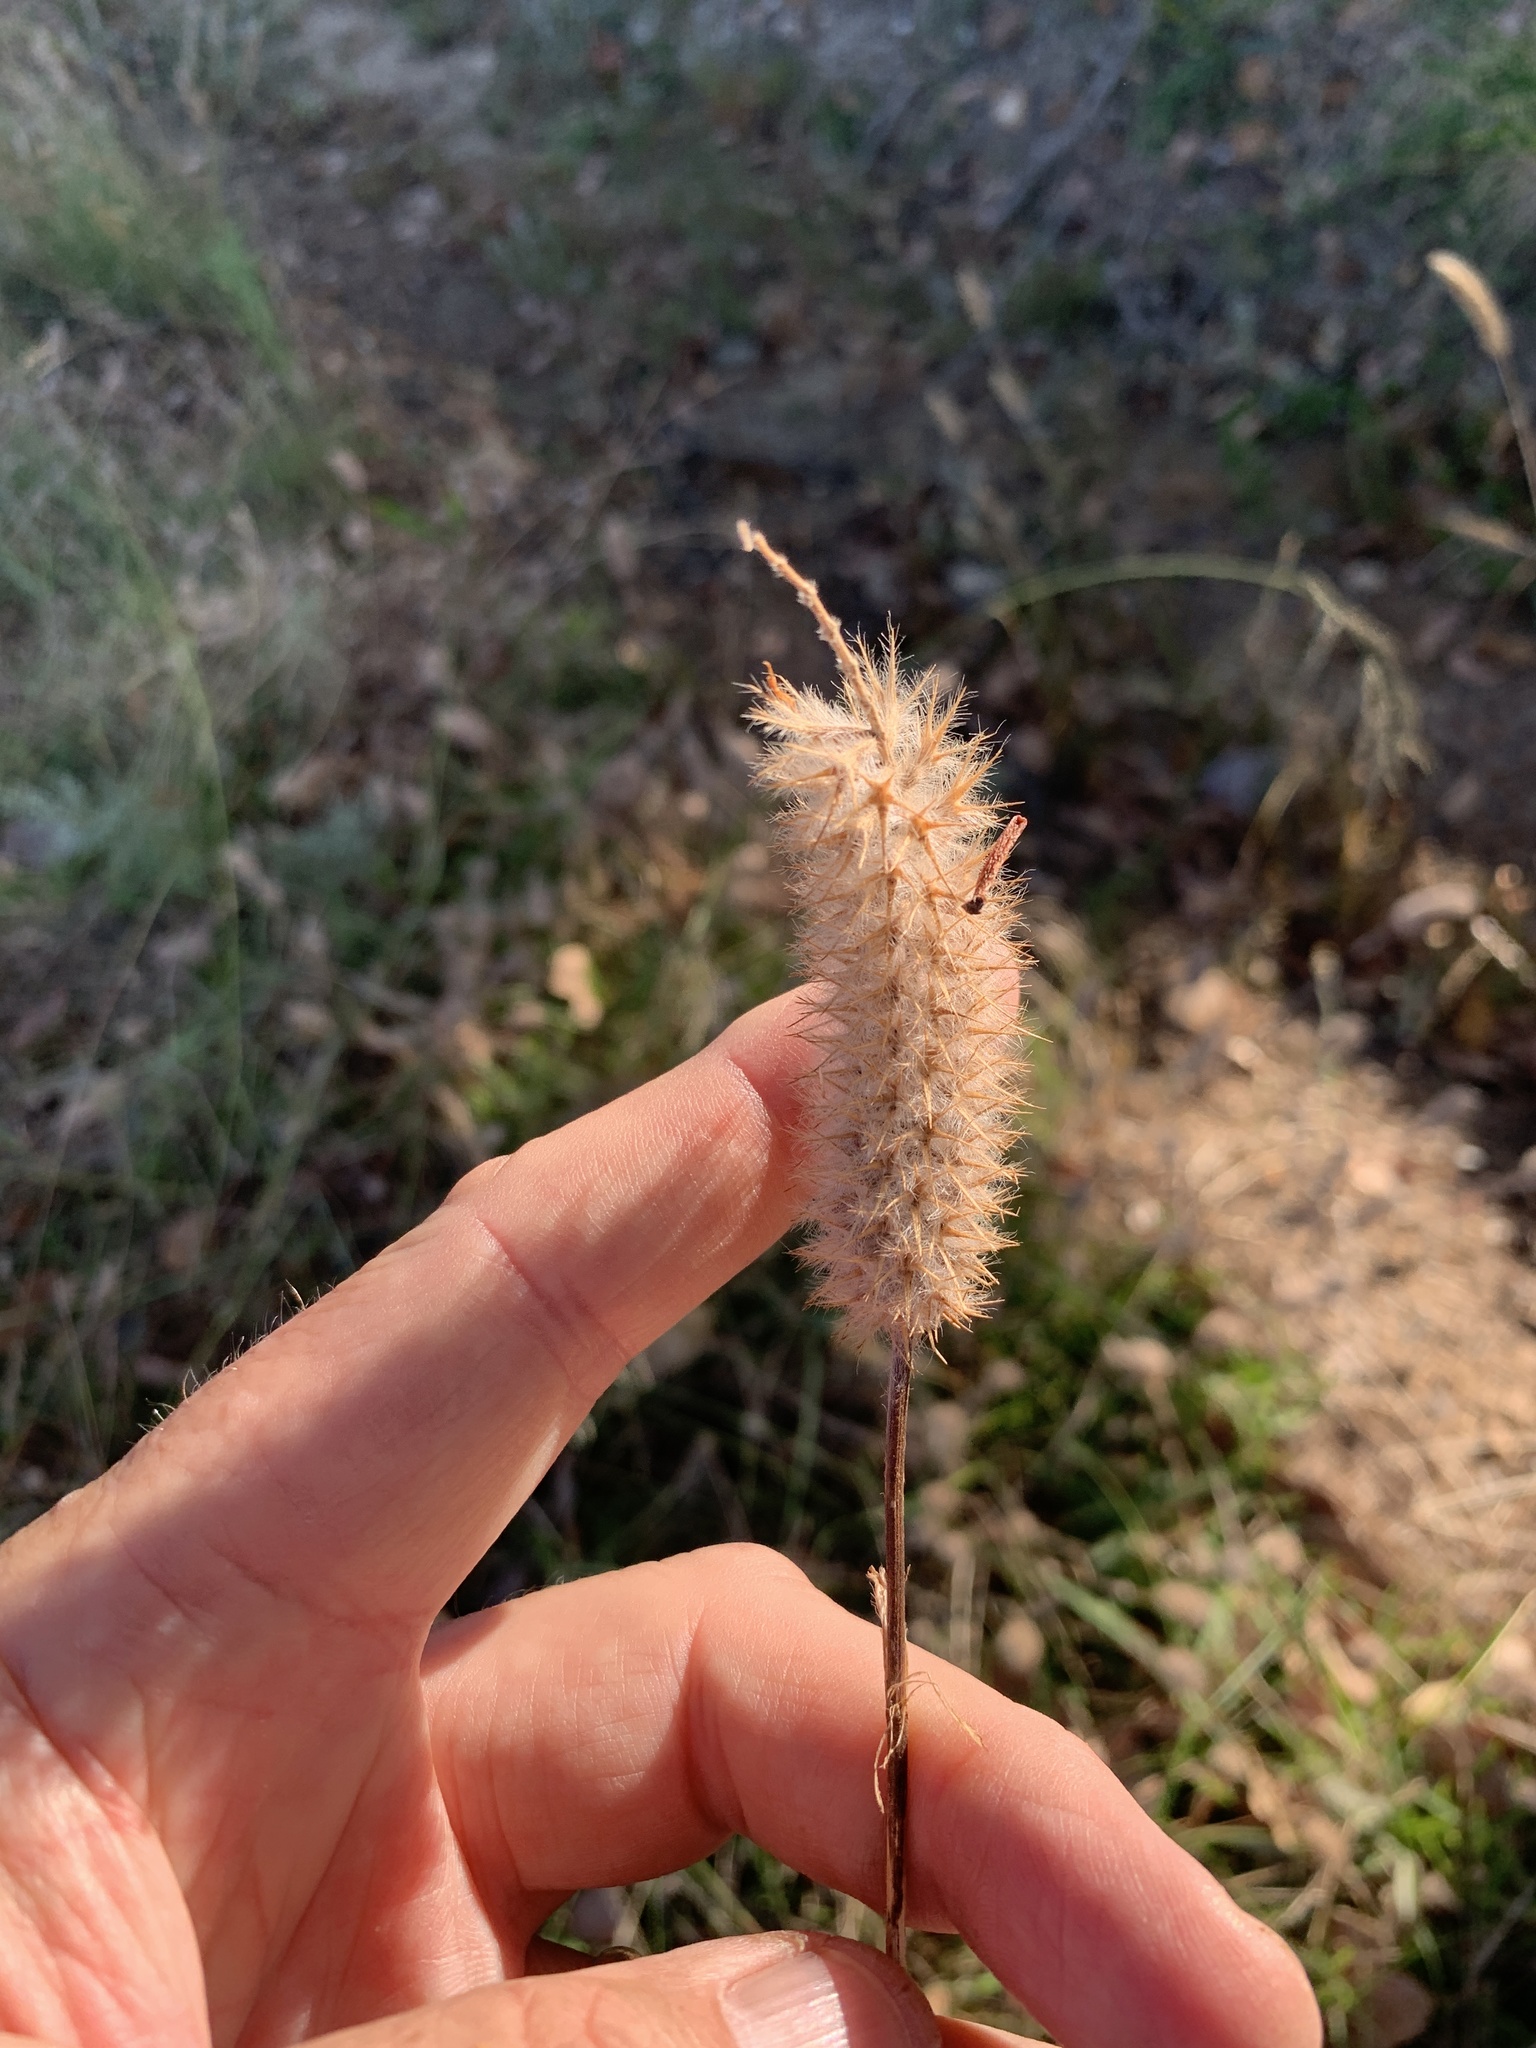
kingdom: Plantae
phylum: Tracheophyta
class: Magnoliopsida
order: Fabales
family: Fabaceae
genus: Trifolium
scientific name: Trifolium angustifolium
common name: Narrow clover
